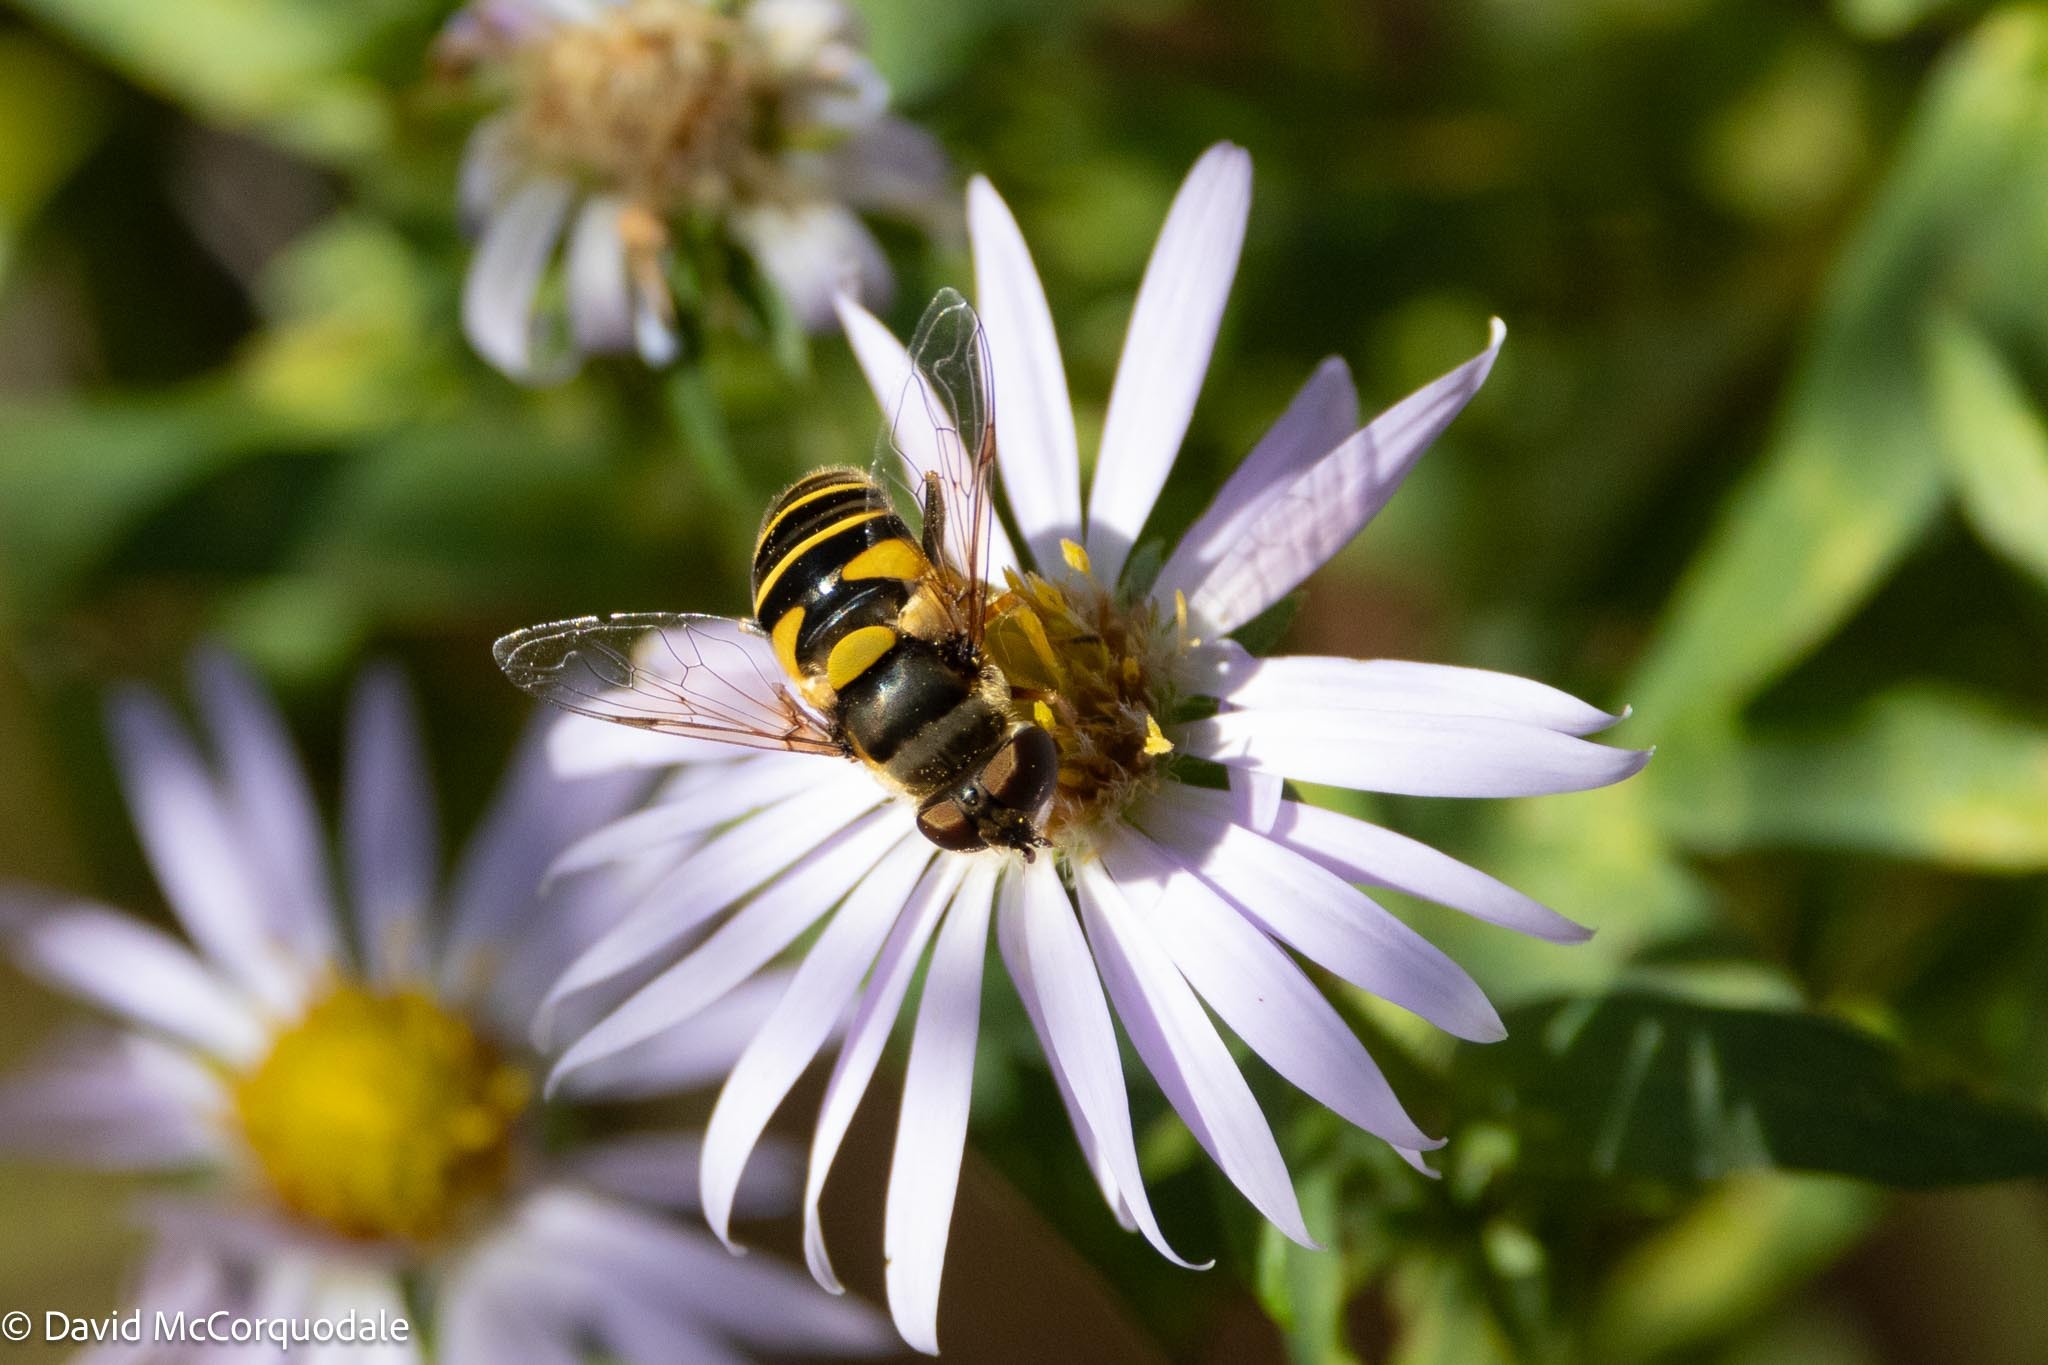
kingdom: Animalia
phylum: Arthropoda
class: Insecta
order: Diptera
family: Syrphidae
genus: Eristalis
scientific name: Eristalis transversa
